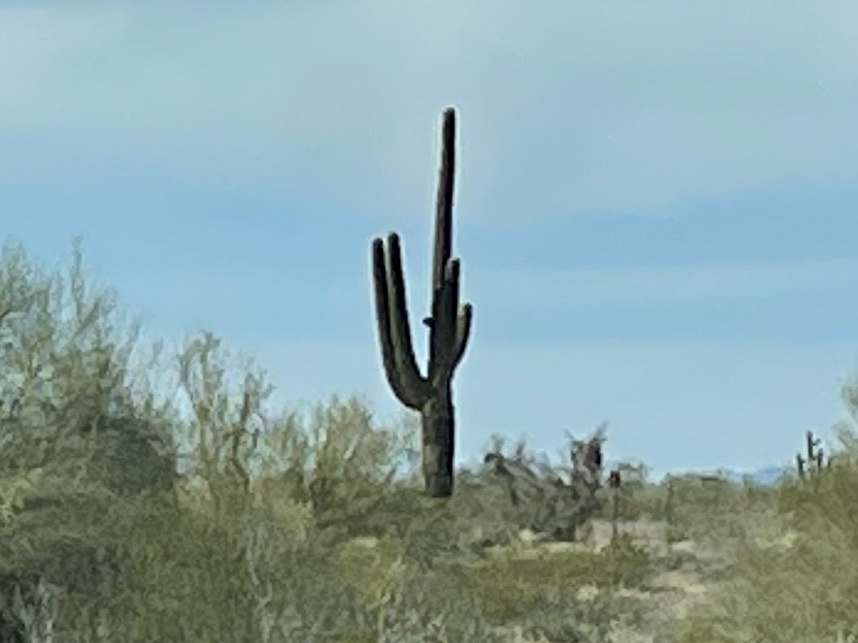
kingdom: Plantae
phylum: Tracheophyta
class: Magnoliopsida
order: Caryophyllales
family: Cactaceae
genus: Carnegiea
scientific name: Carnegiea gigantea
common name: Saguaro
